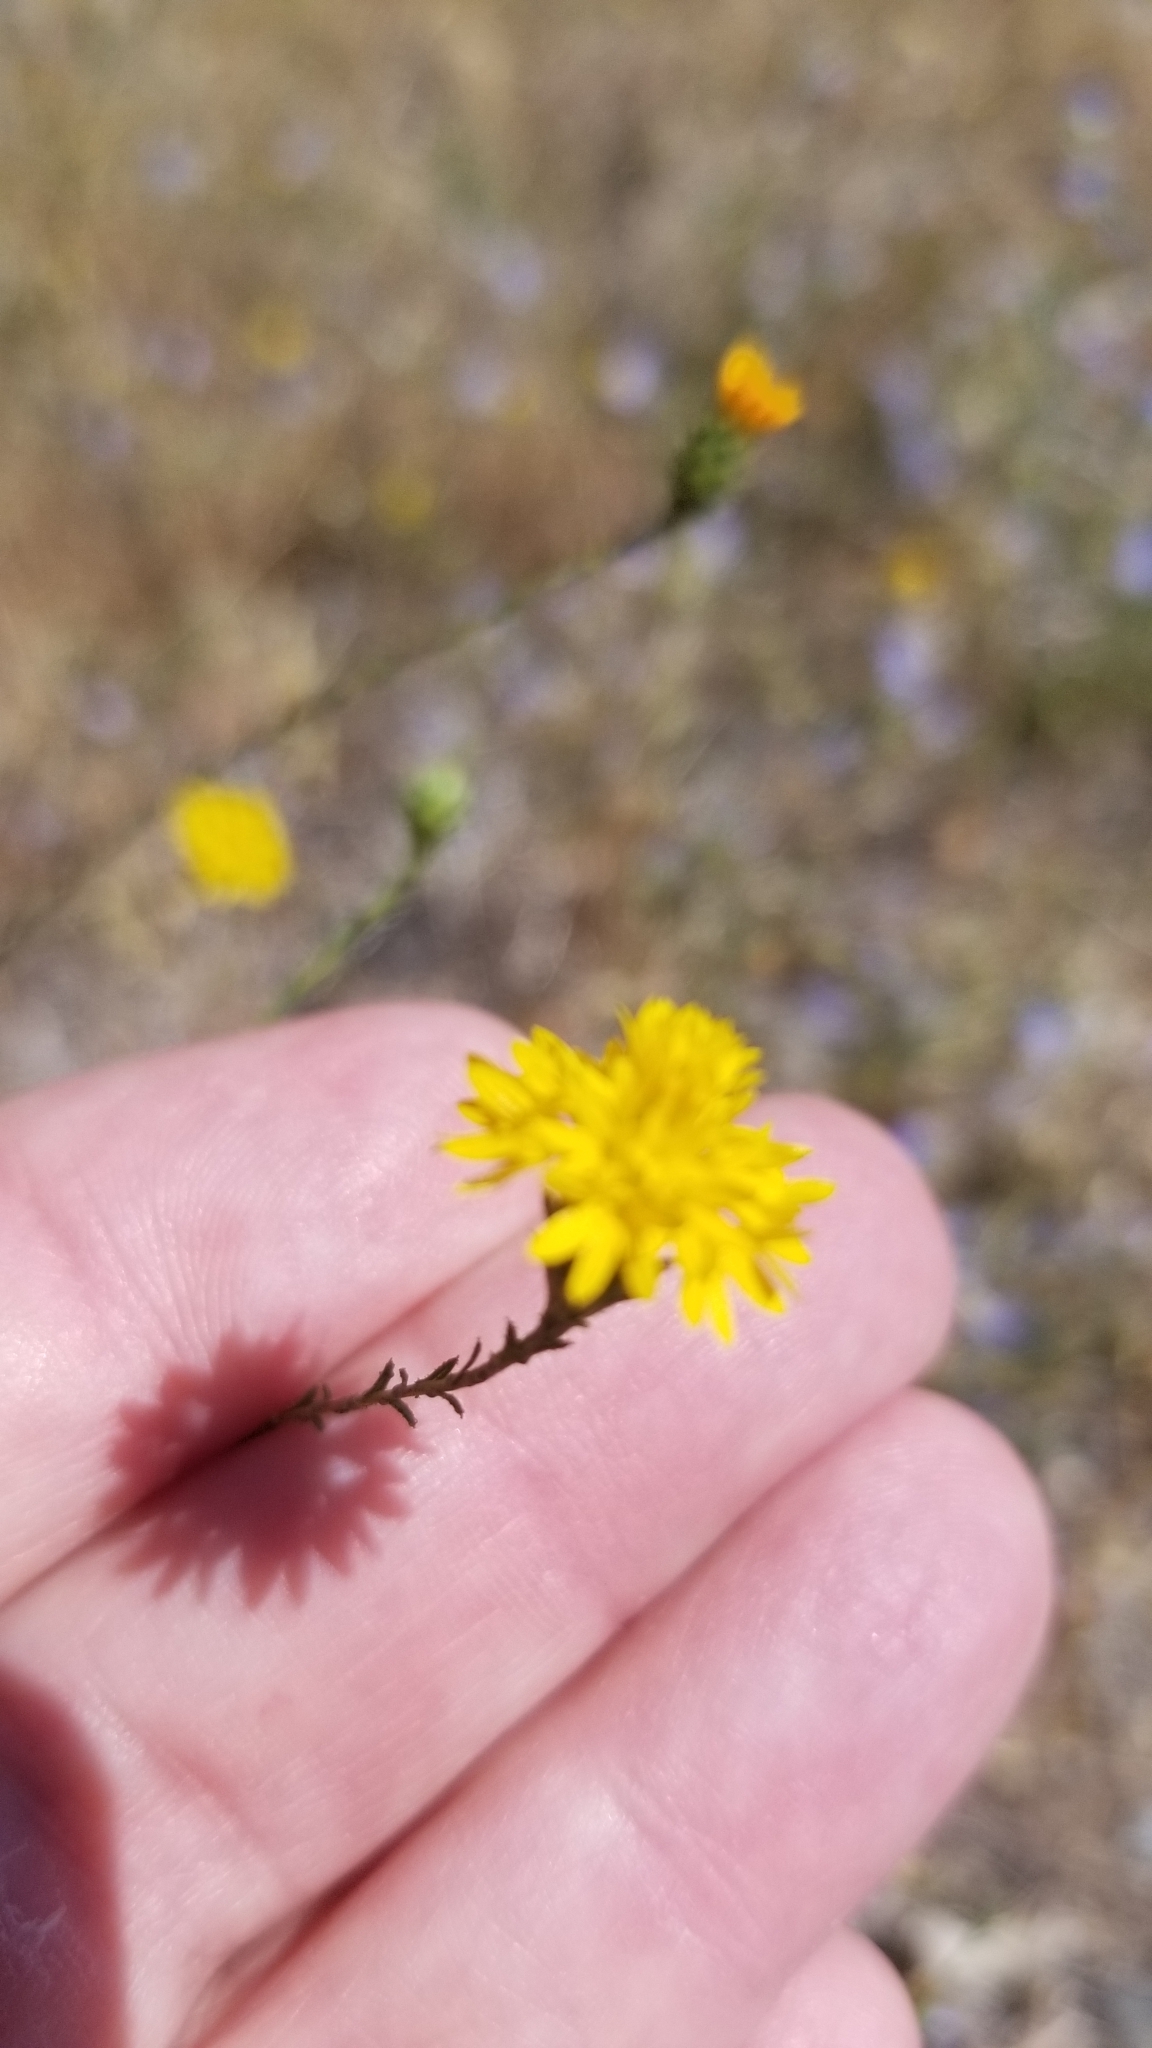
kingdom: Plantae
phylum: Tracheophyta
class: Magnoliopsida
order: Asterales
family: Asteraceae
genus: Lessingia
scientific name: Lessingia glandulifera
